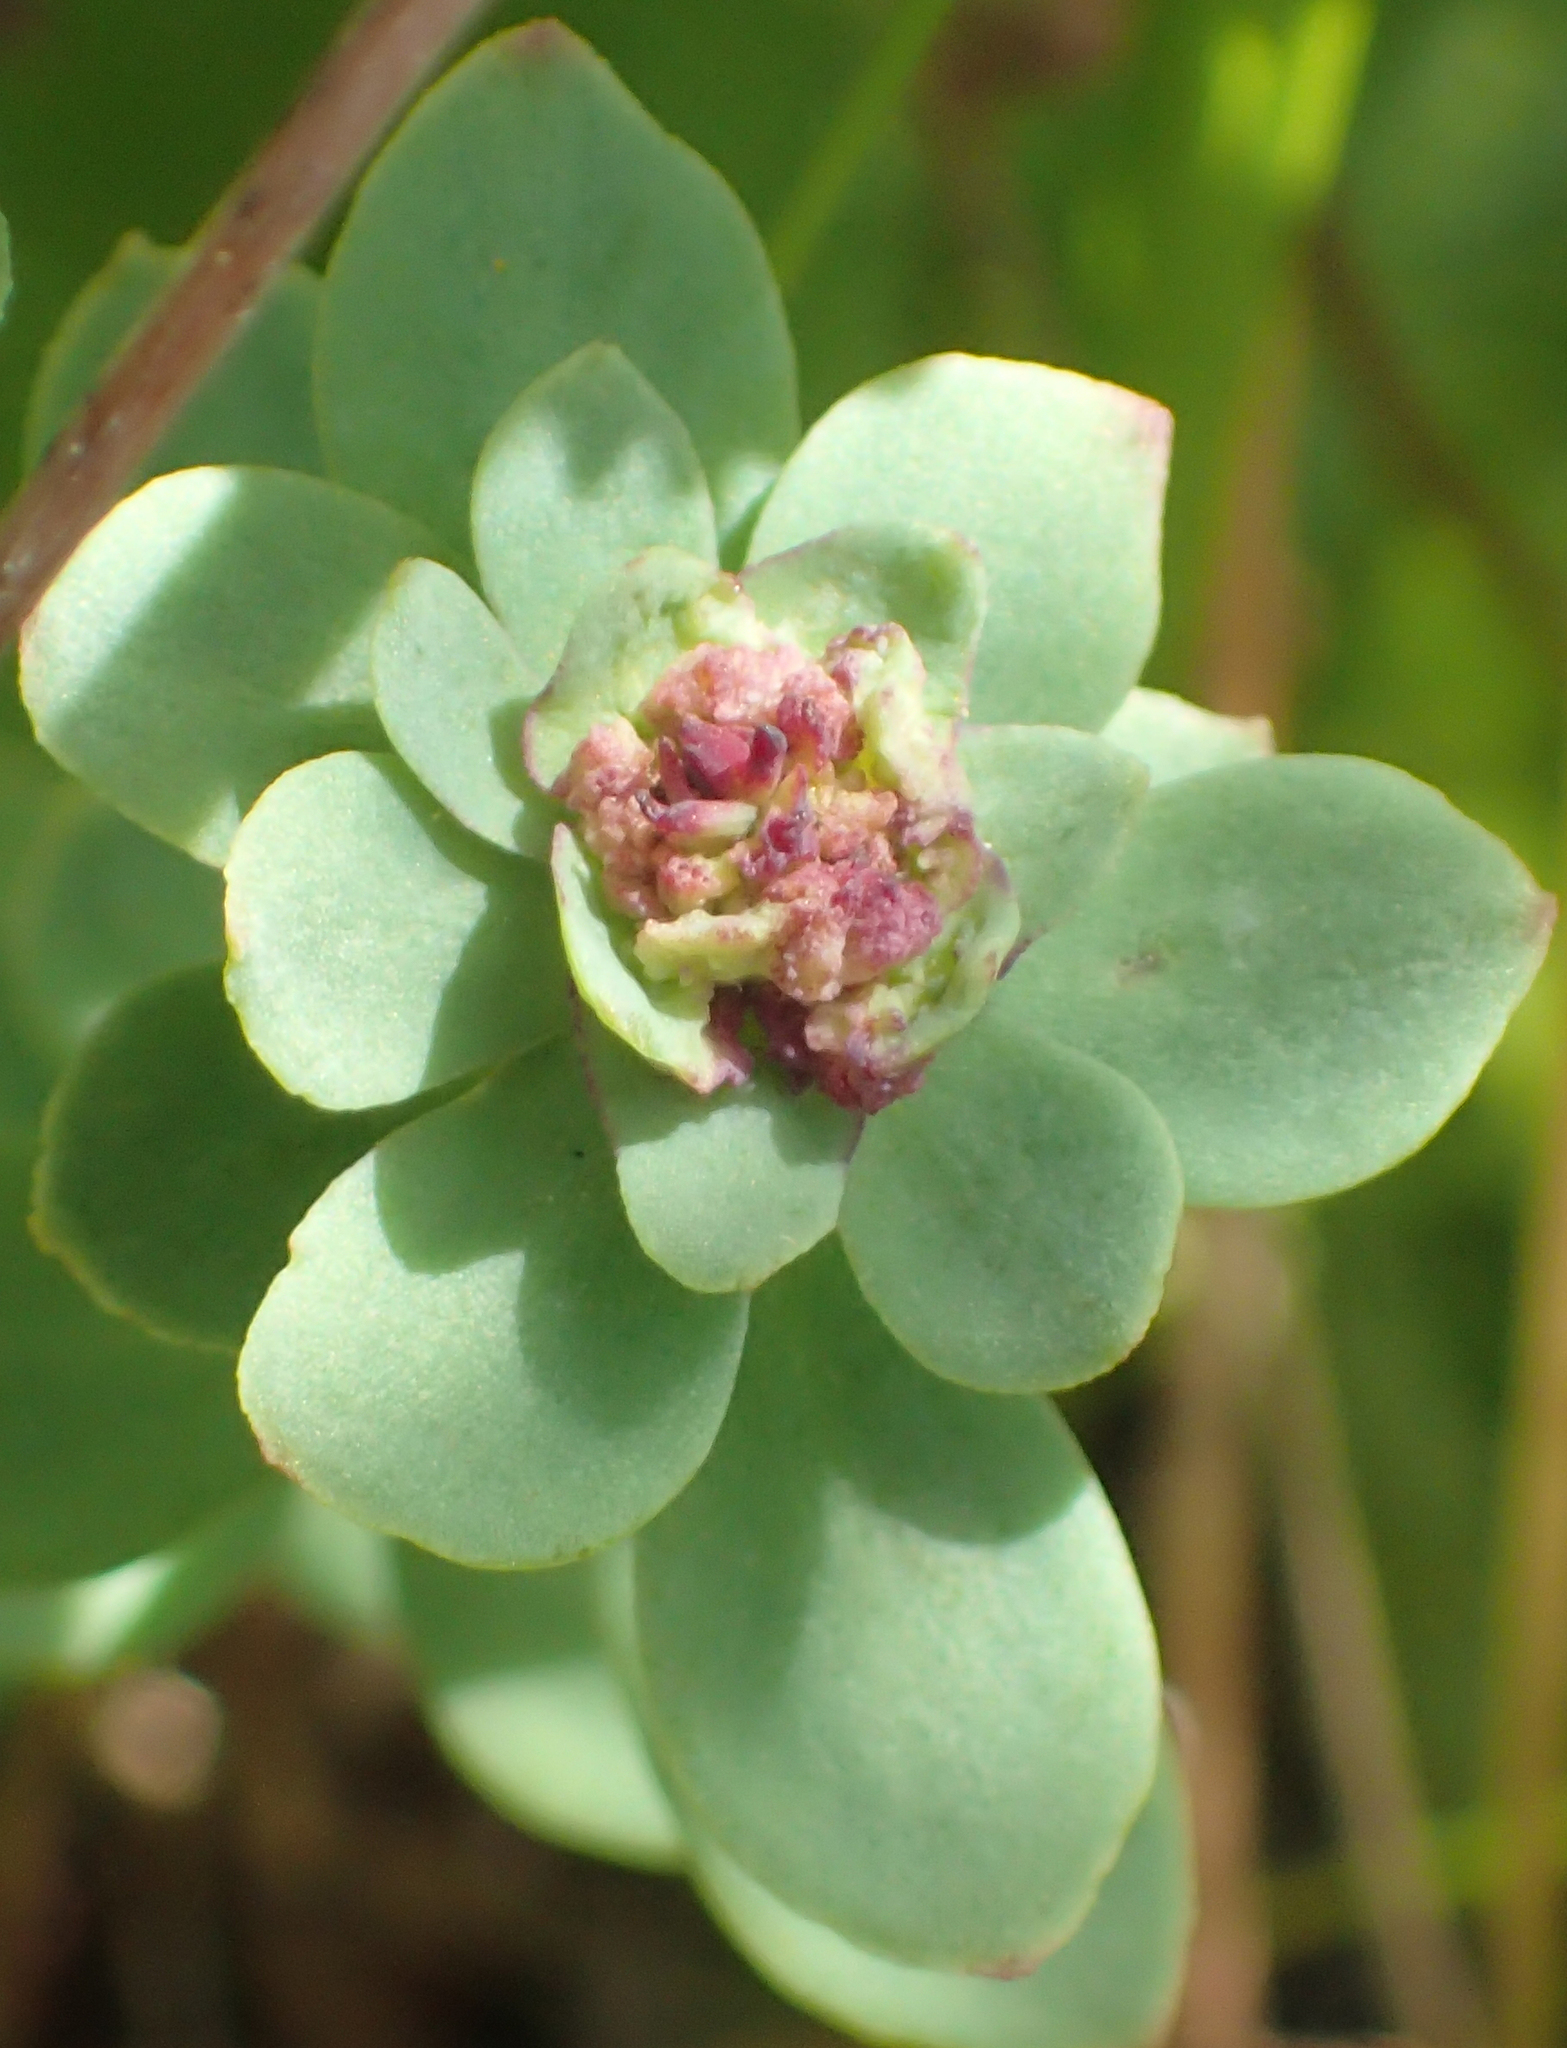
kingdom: Plantae
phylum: Tracheophyta
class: Magnoliopsida
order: Saxifragales
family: Crassulaceae
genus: Rhodiola
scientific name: Rhodiola integrifolia
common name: Western roseroot
